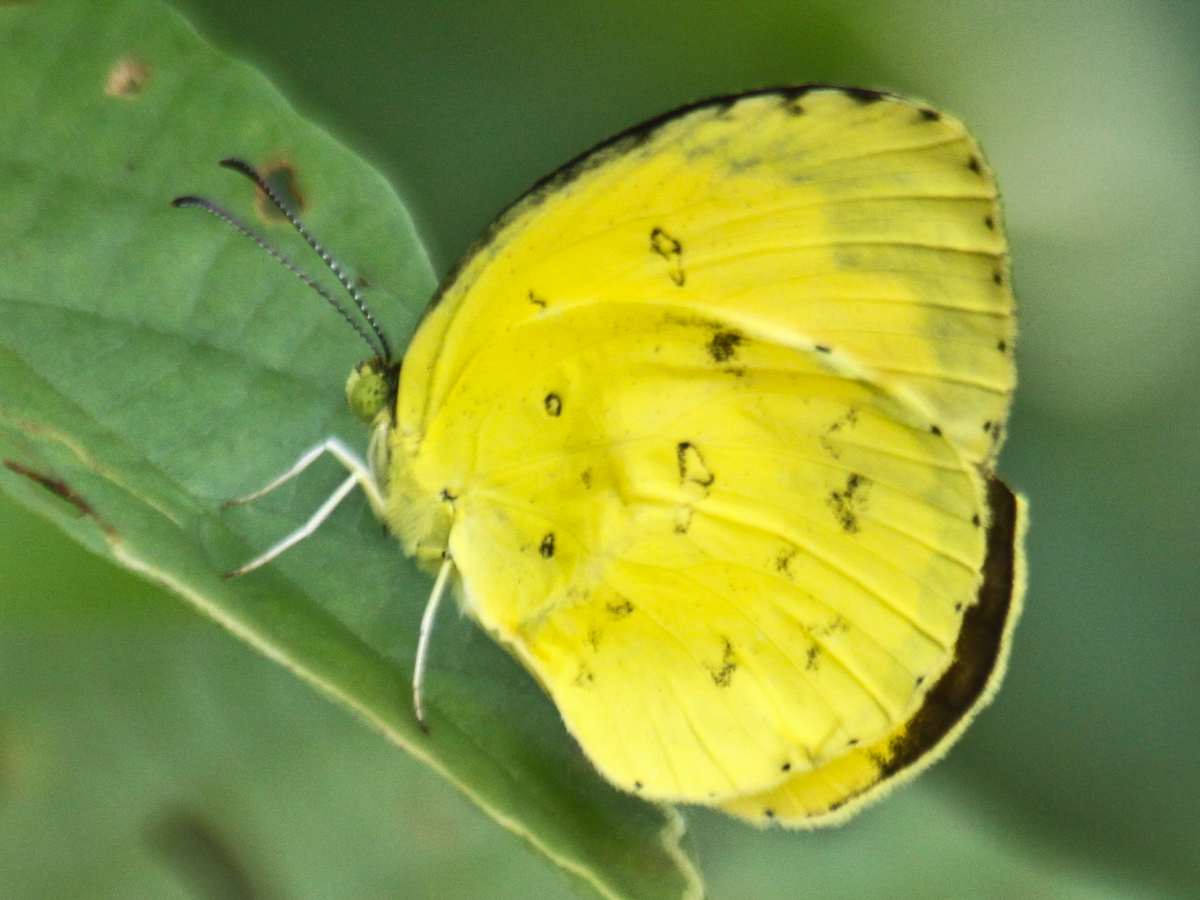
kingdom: Animalia
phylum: Arthropoda
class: Insecta
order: Lepidoptera
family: Pieridae
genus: Eurema
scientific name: Eurema hecabe
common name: Pale grass yellow
